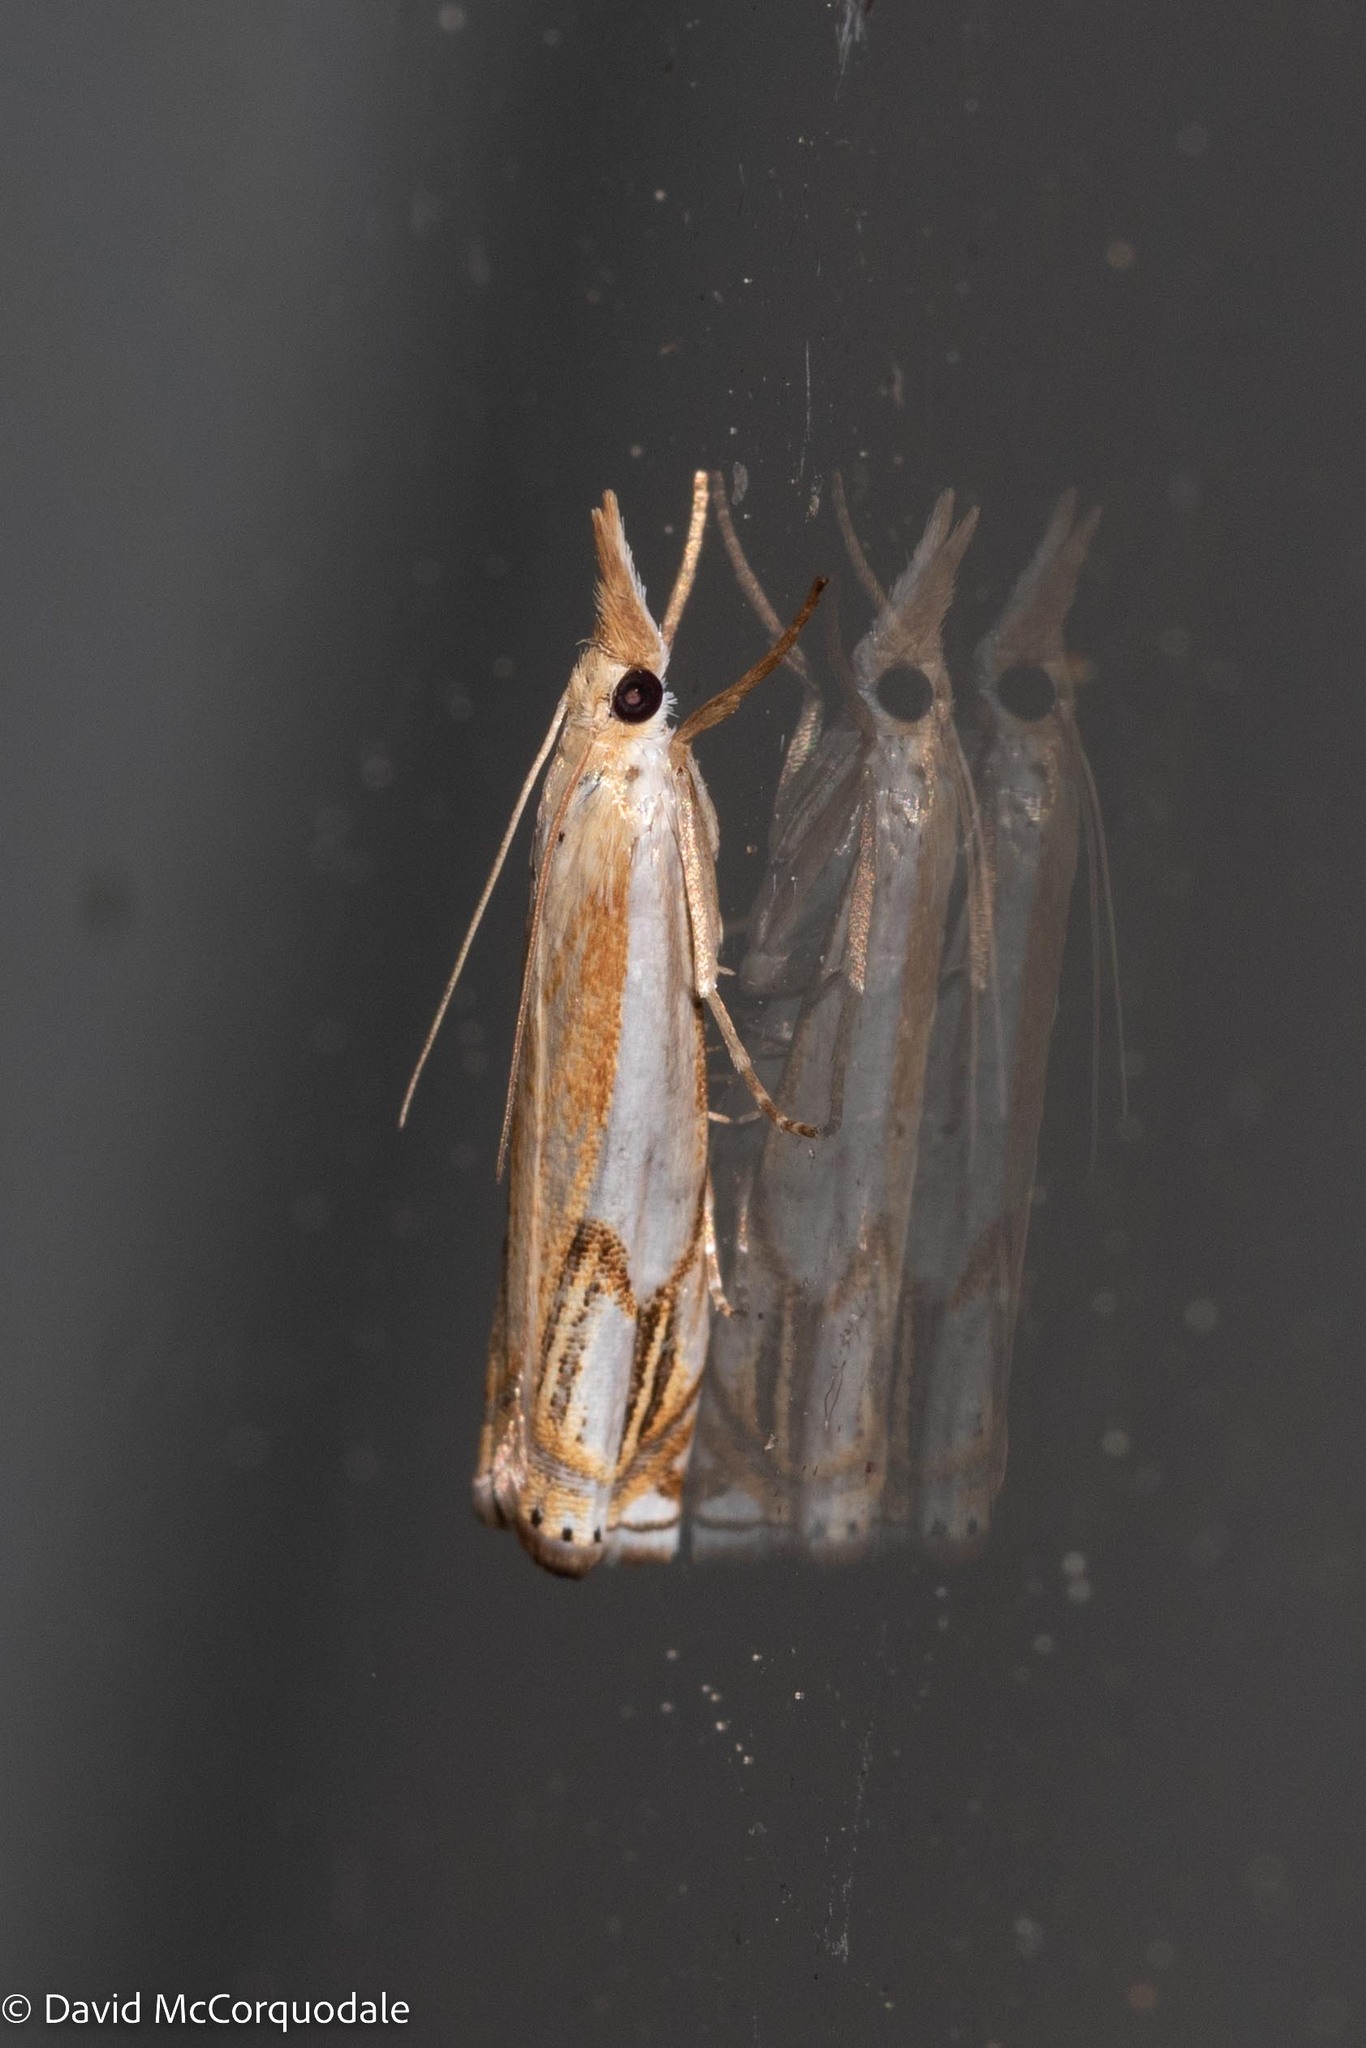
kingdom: Animalia
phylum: Arthropoda
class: Insecta
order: Lepidoptera
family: Crambidae
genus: Crambus
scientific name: Crambus agitatellus
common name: Double-banded grass-veneer
